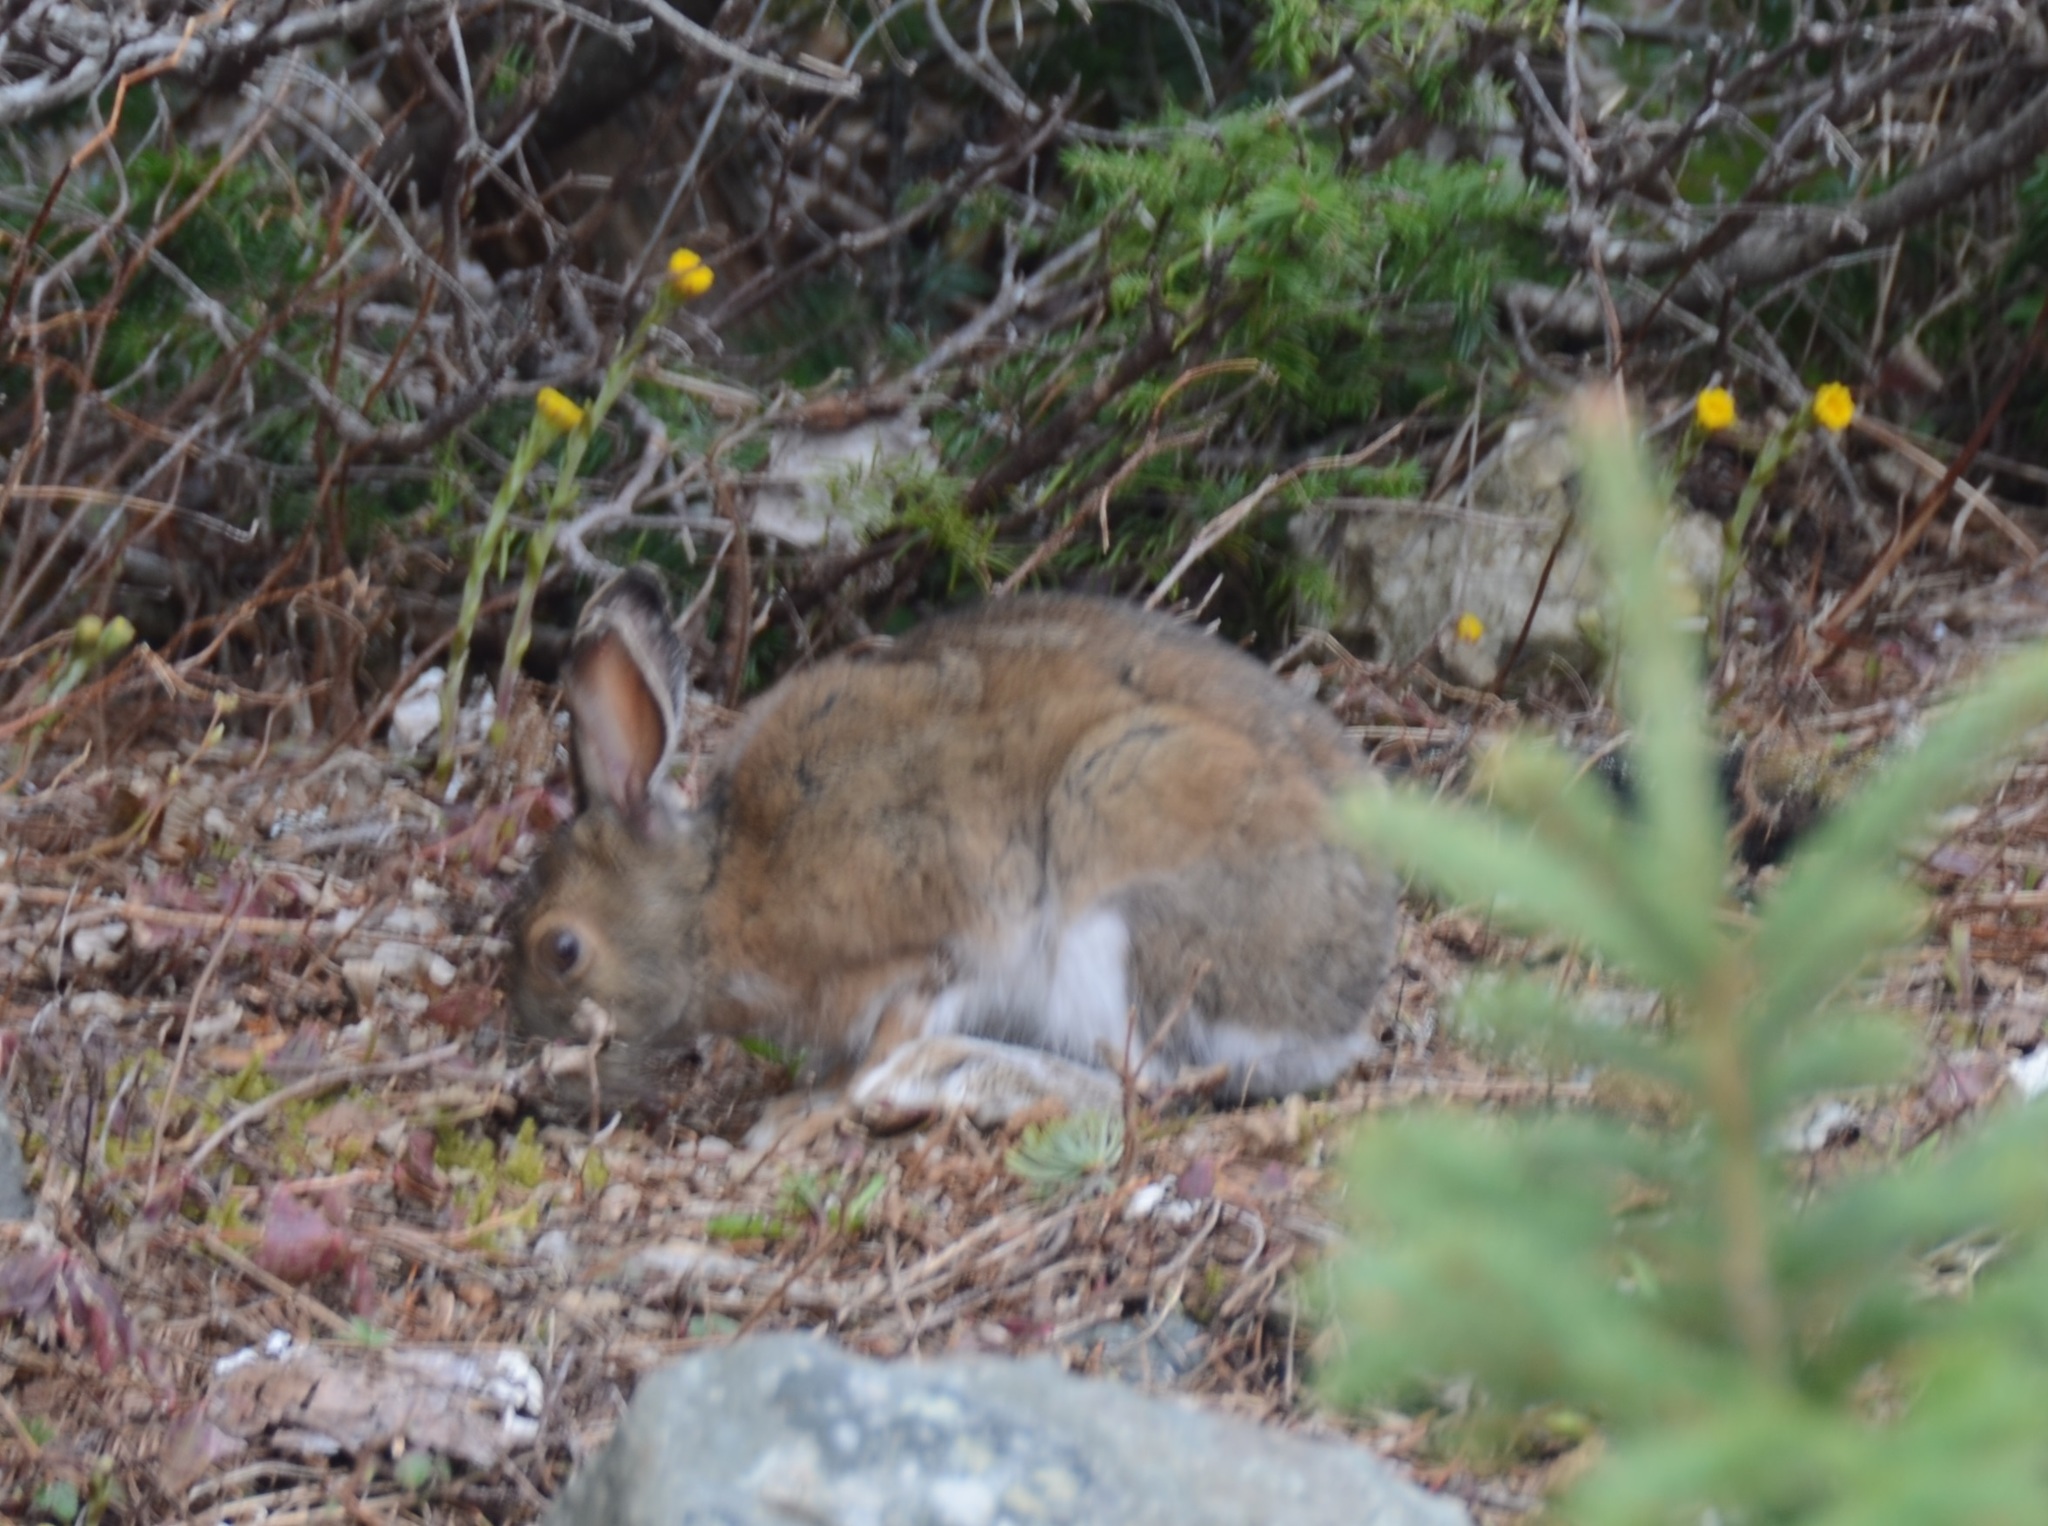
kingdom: Animalia
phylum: Chordata
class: Mammalia
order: Lagomorpha
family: Leporidae
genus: Lepus
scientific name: Lepus americanus
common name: Snowshoe hare
